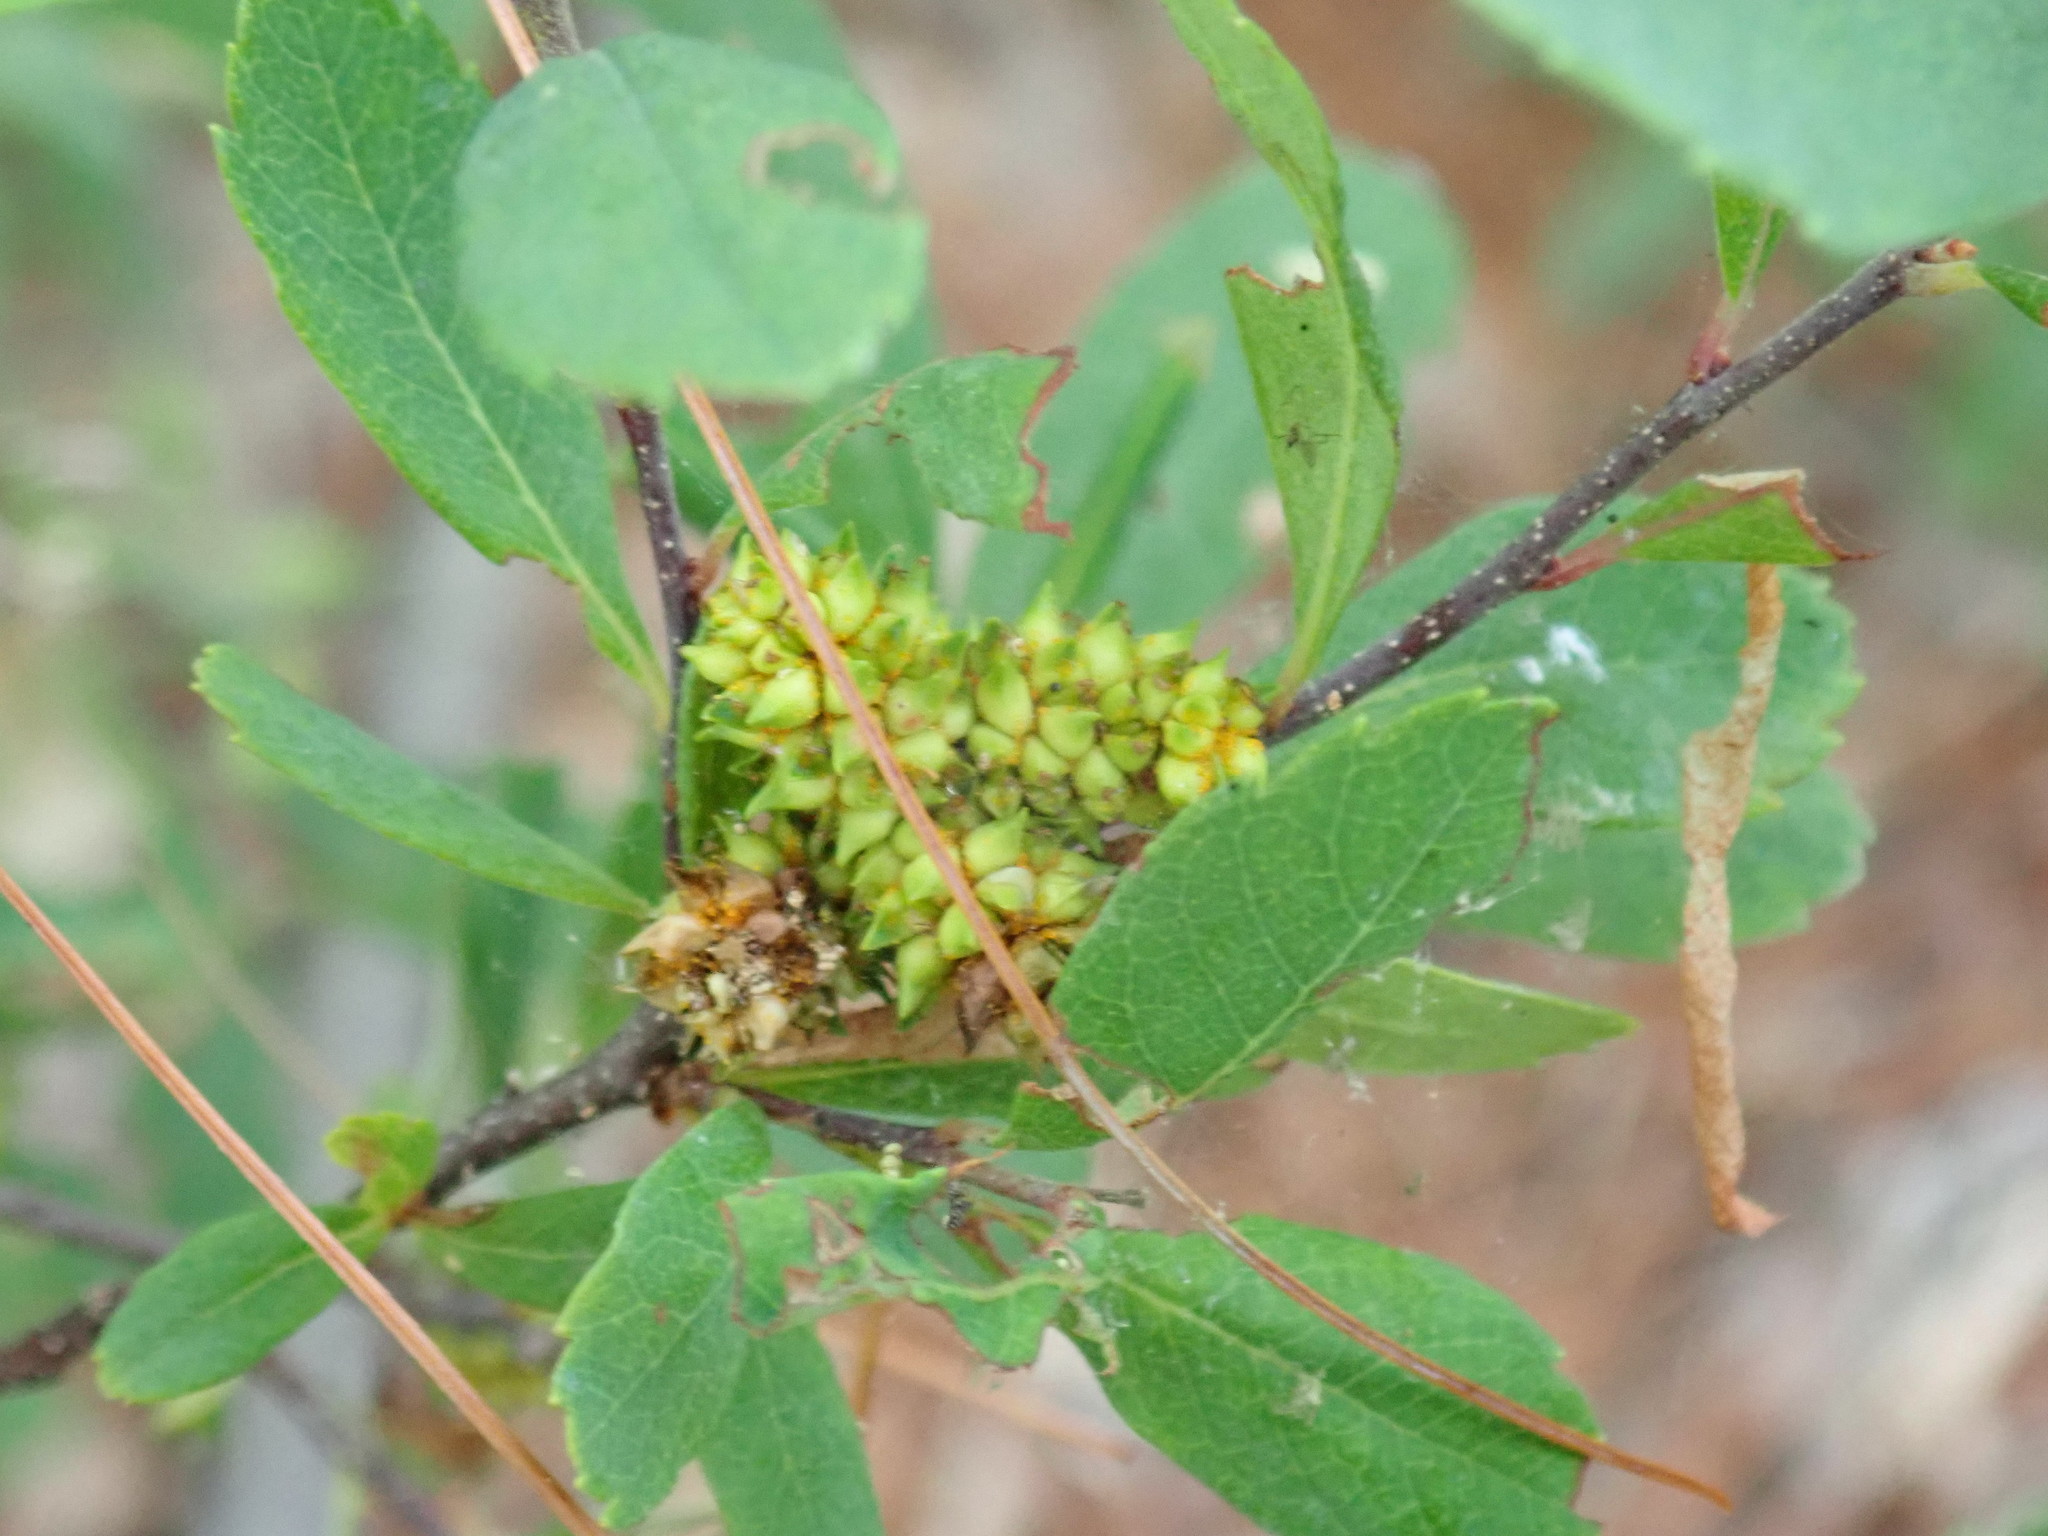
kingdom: Plantae
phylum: Tracheophyta
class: Magnoliopsida
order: Fagales
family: Myricaceae
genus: Myrica
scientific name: Myrica gale
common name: Sweet gale
